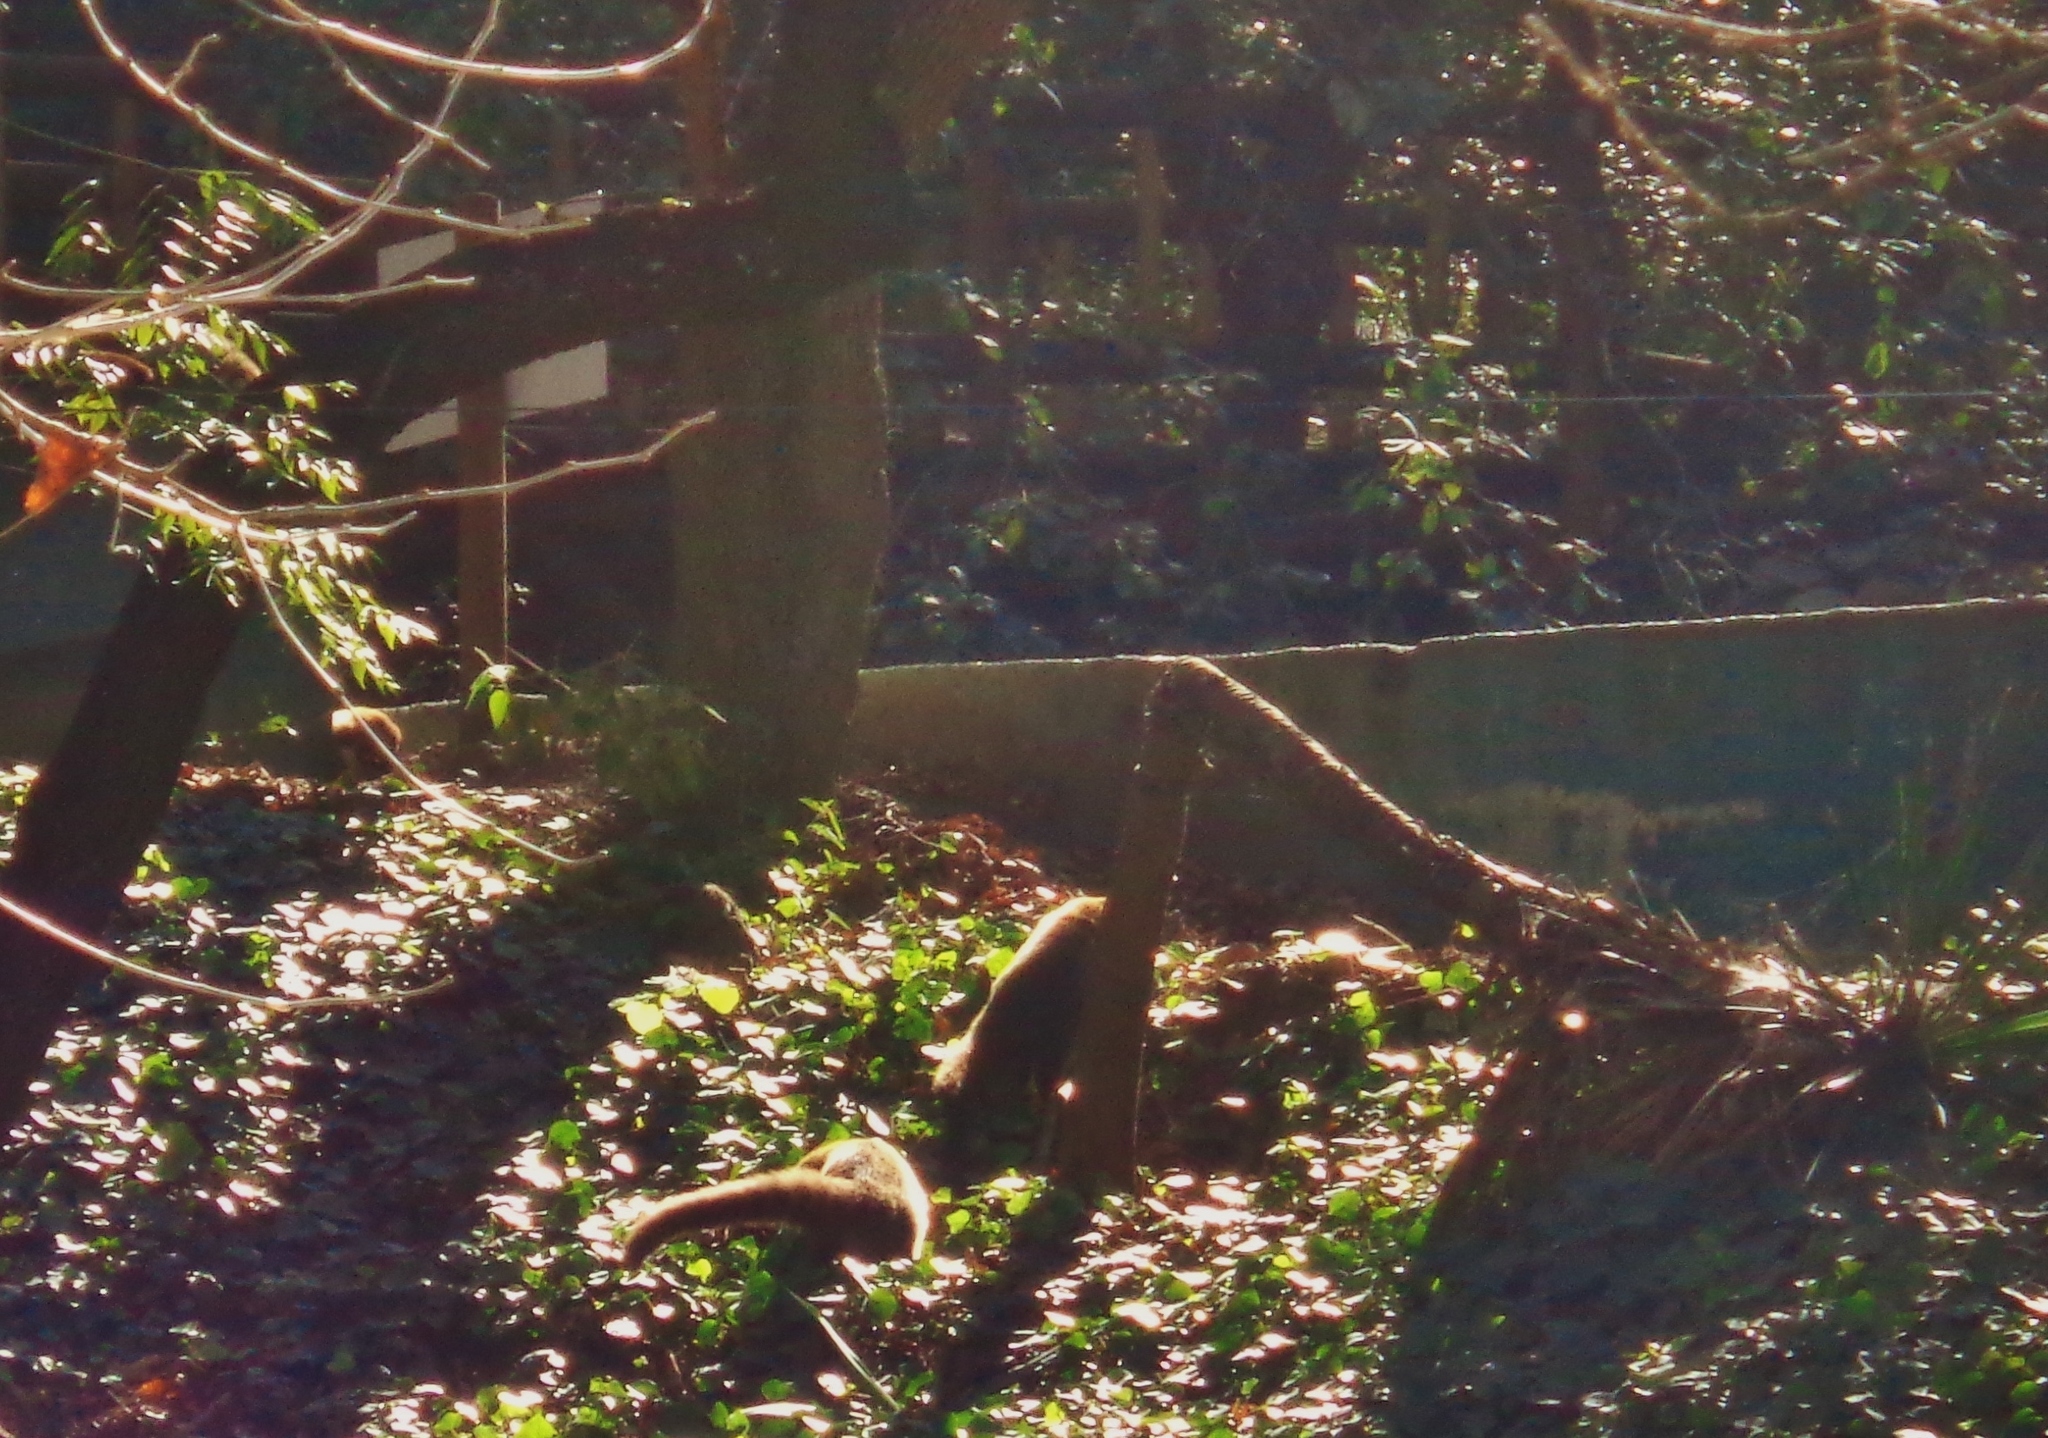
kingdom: Animalia
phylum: Chordata
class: Mammalia
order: Carnivora
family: Procyonidae
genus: Nasua
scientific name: Nasua narica
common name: White-nosed coati
